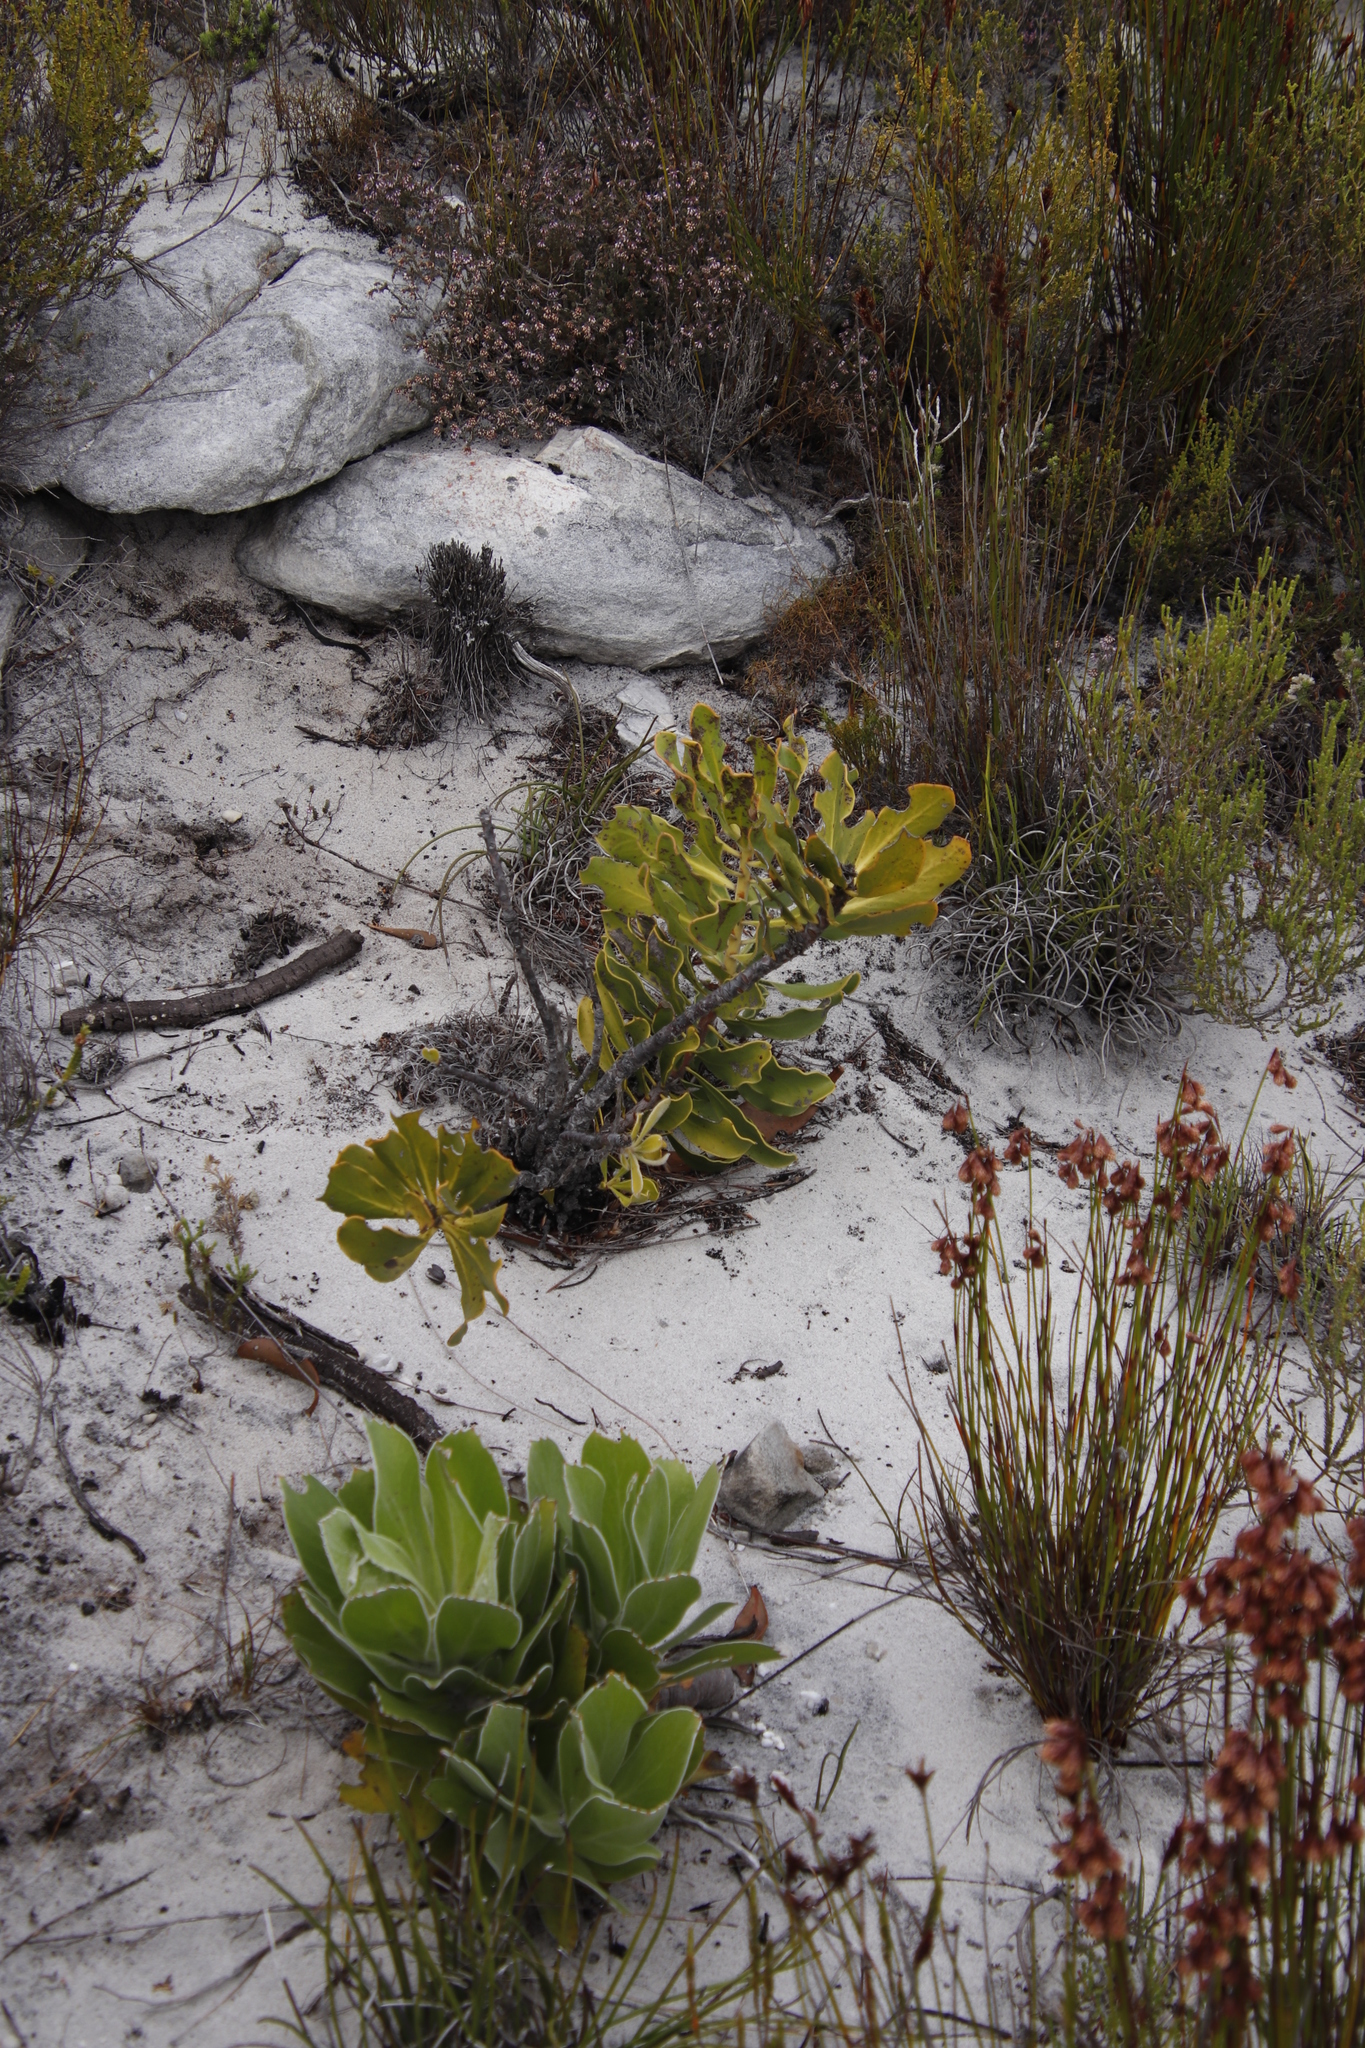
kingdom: Plantae
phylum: Tracheophyta
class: Magnoliopsida
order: Proteales
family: Proteaceae
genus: Protea
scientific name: Protea speciosa
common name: Brown-beard sugarbush
